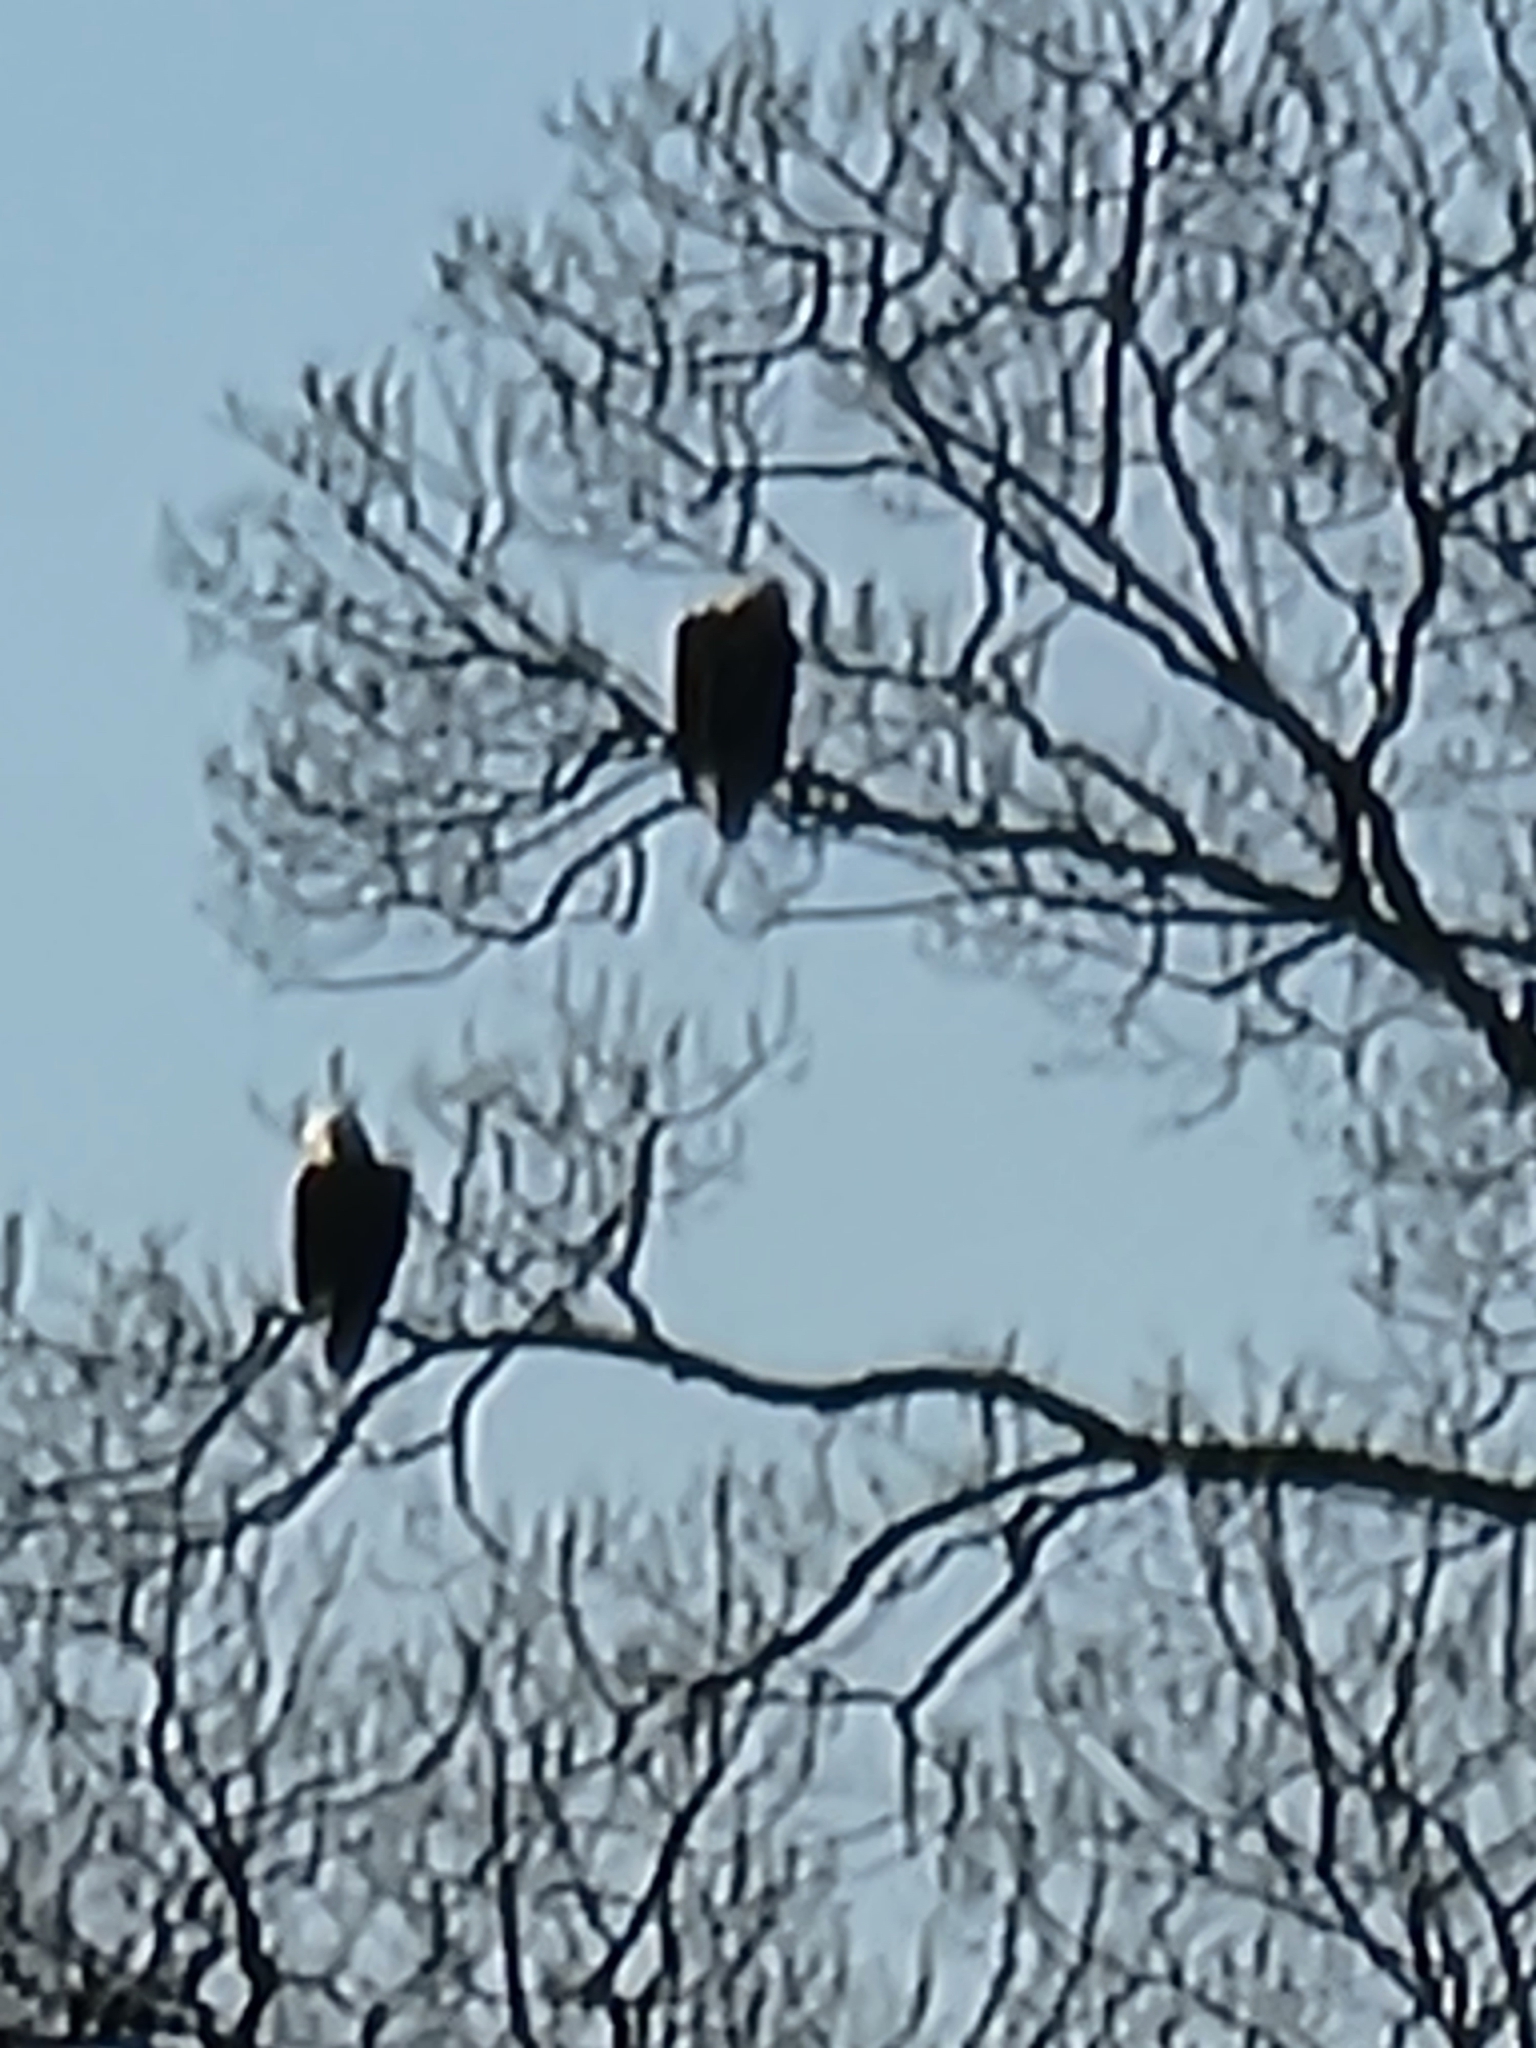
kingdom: Animalia
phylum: Chordata
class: Aves
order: Accipitriformes
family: Accipitridae
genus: Haliaeetus
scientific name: Haliaeetus leucocephalus
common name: Bald eagle
